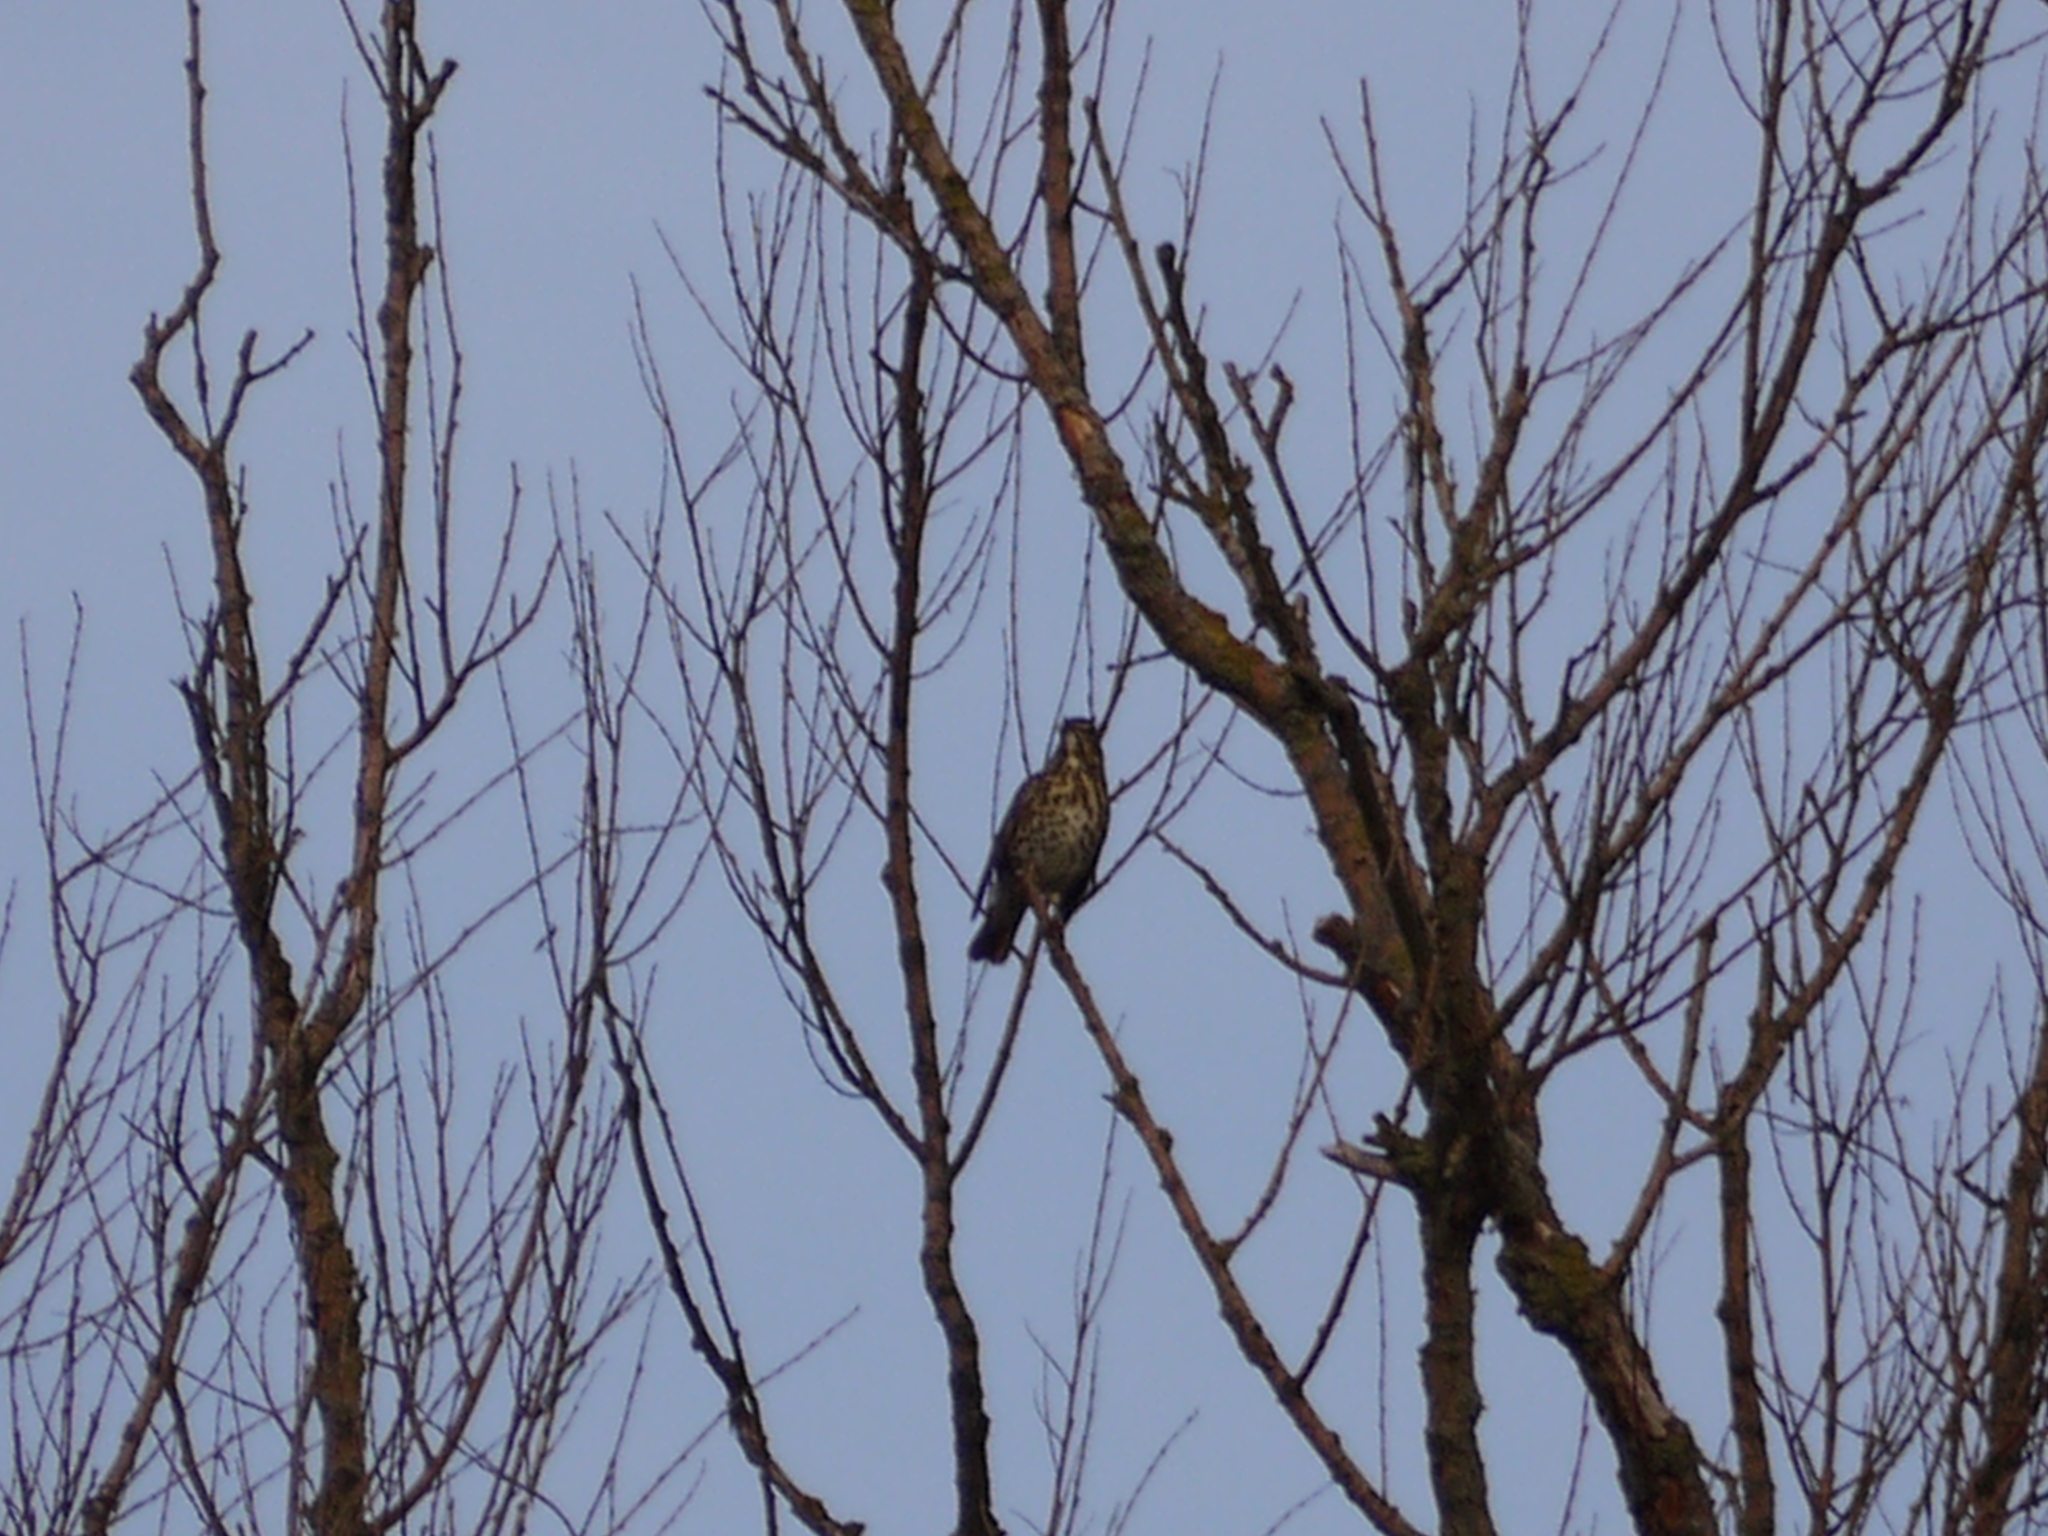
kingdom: Animalia
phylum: Chordata
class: Aves
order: Passeriformes
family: Turdidae
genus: Turdus
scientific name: Turdus philomelos
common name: Song thrush
